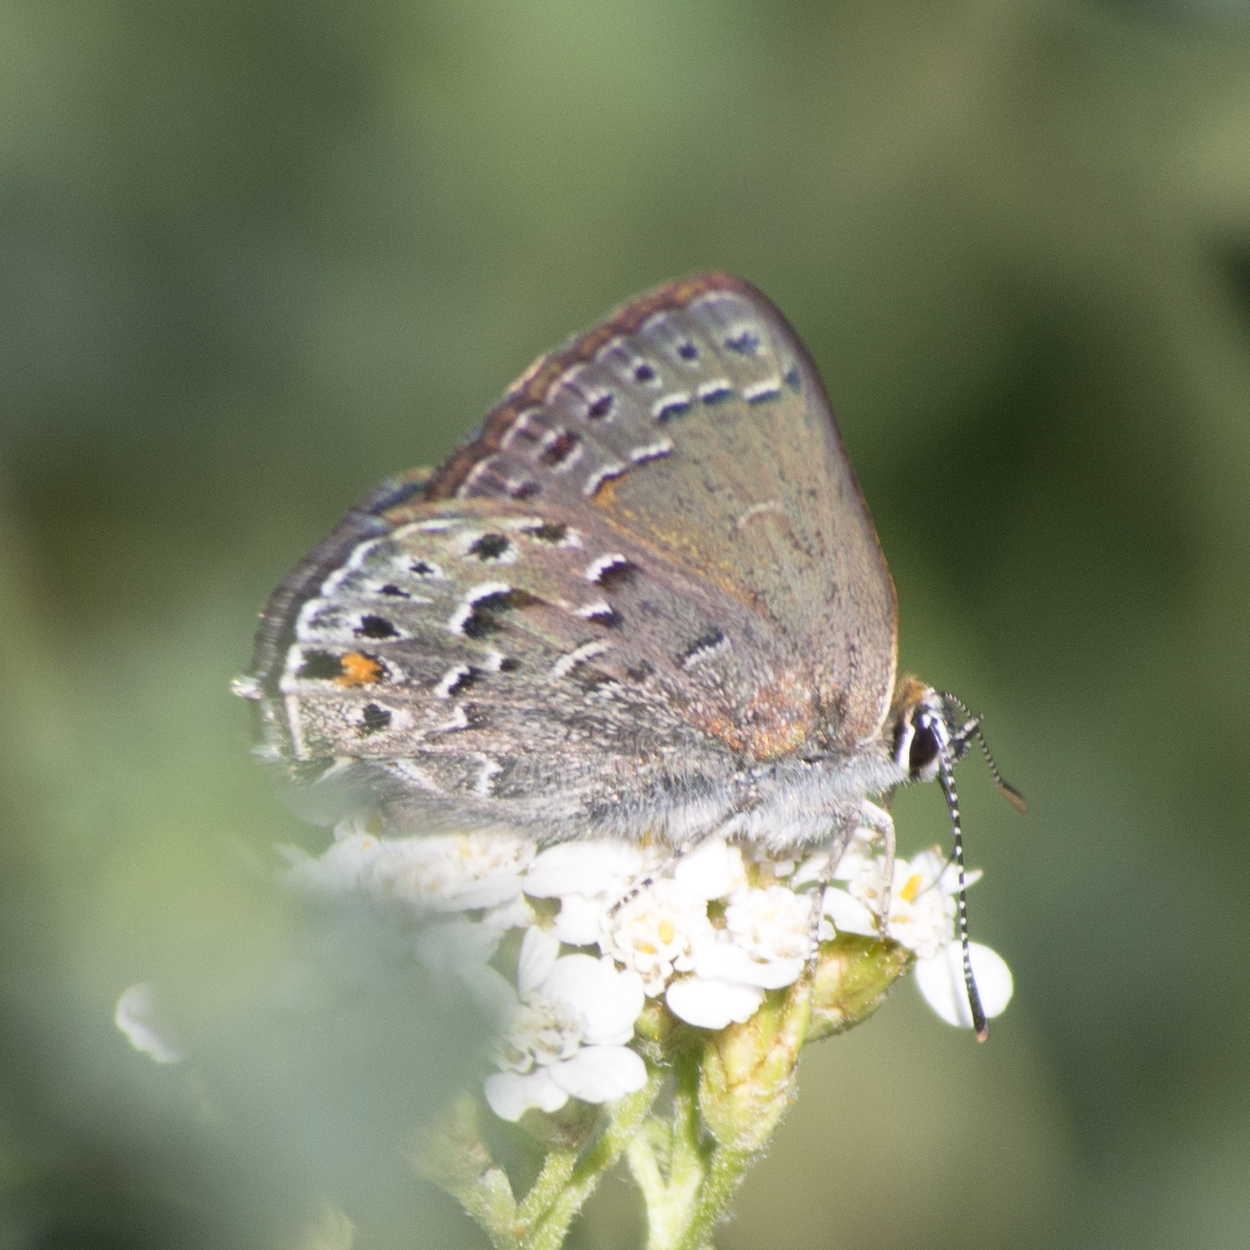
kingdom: Animalia
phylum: Arthropoda
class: Insecta
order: Lepidoptera
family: Lycaenidae
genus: Satyrium
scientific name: Satyrium behrii
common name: Behr's hairstreak
